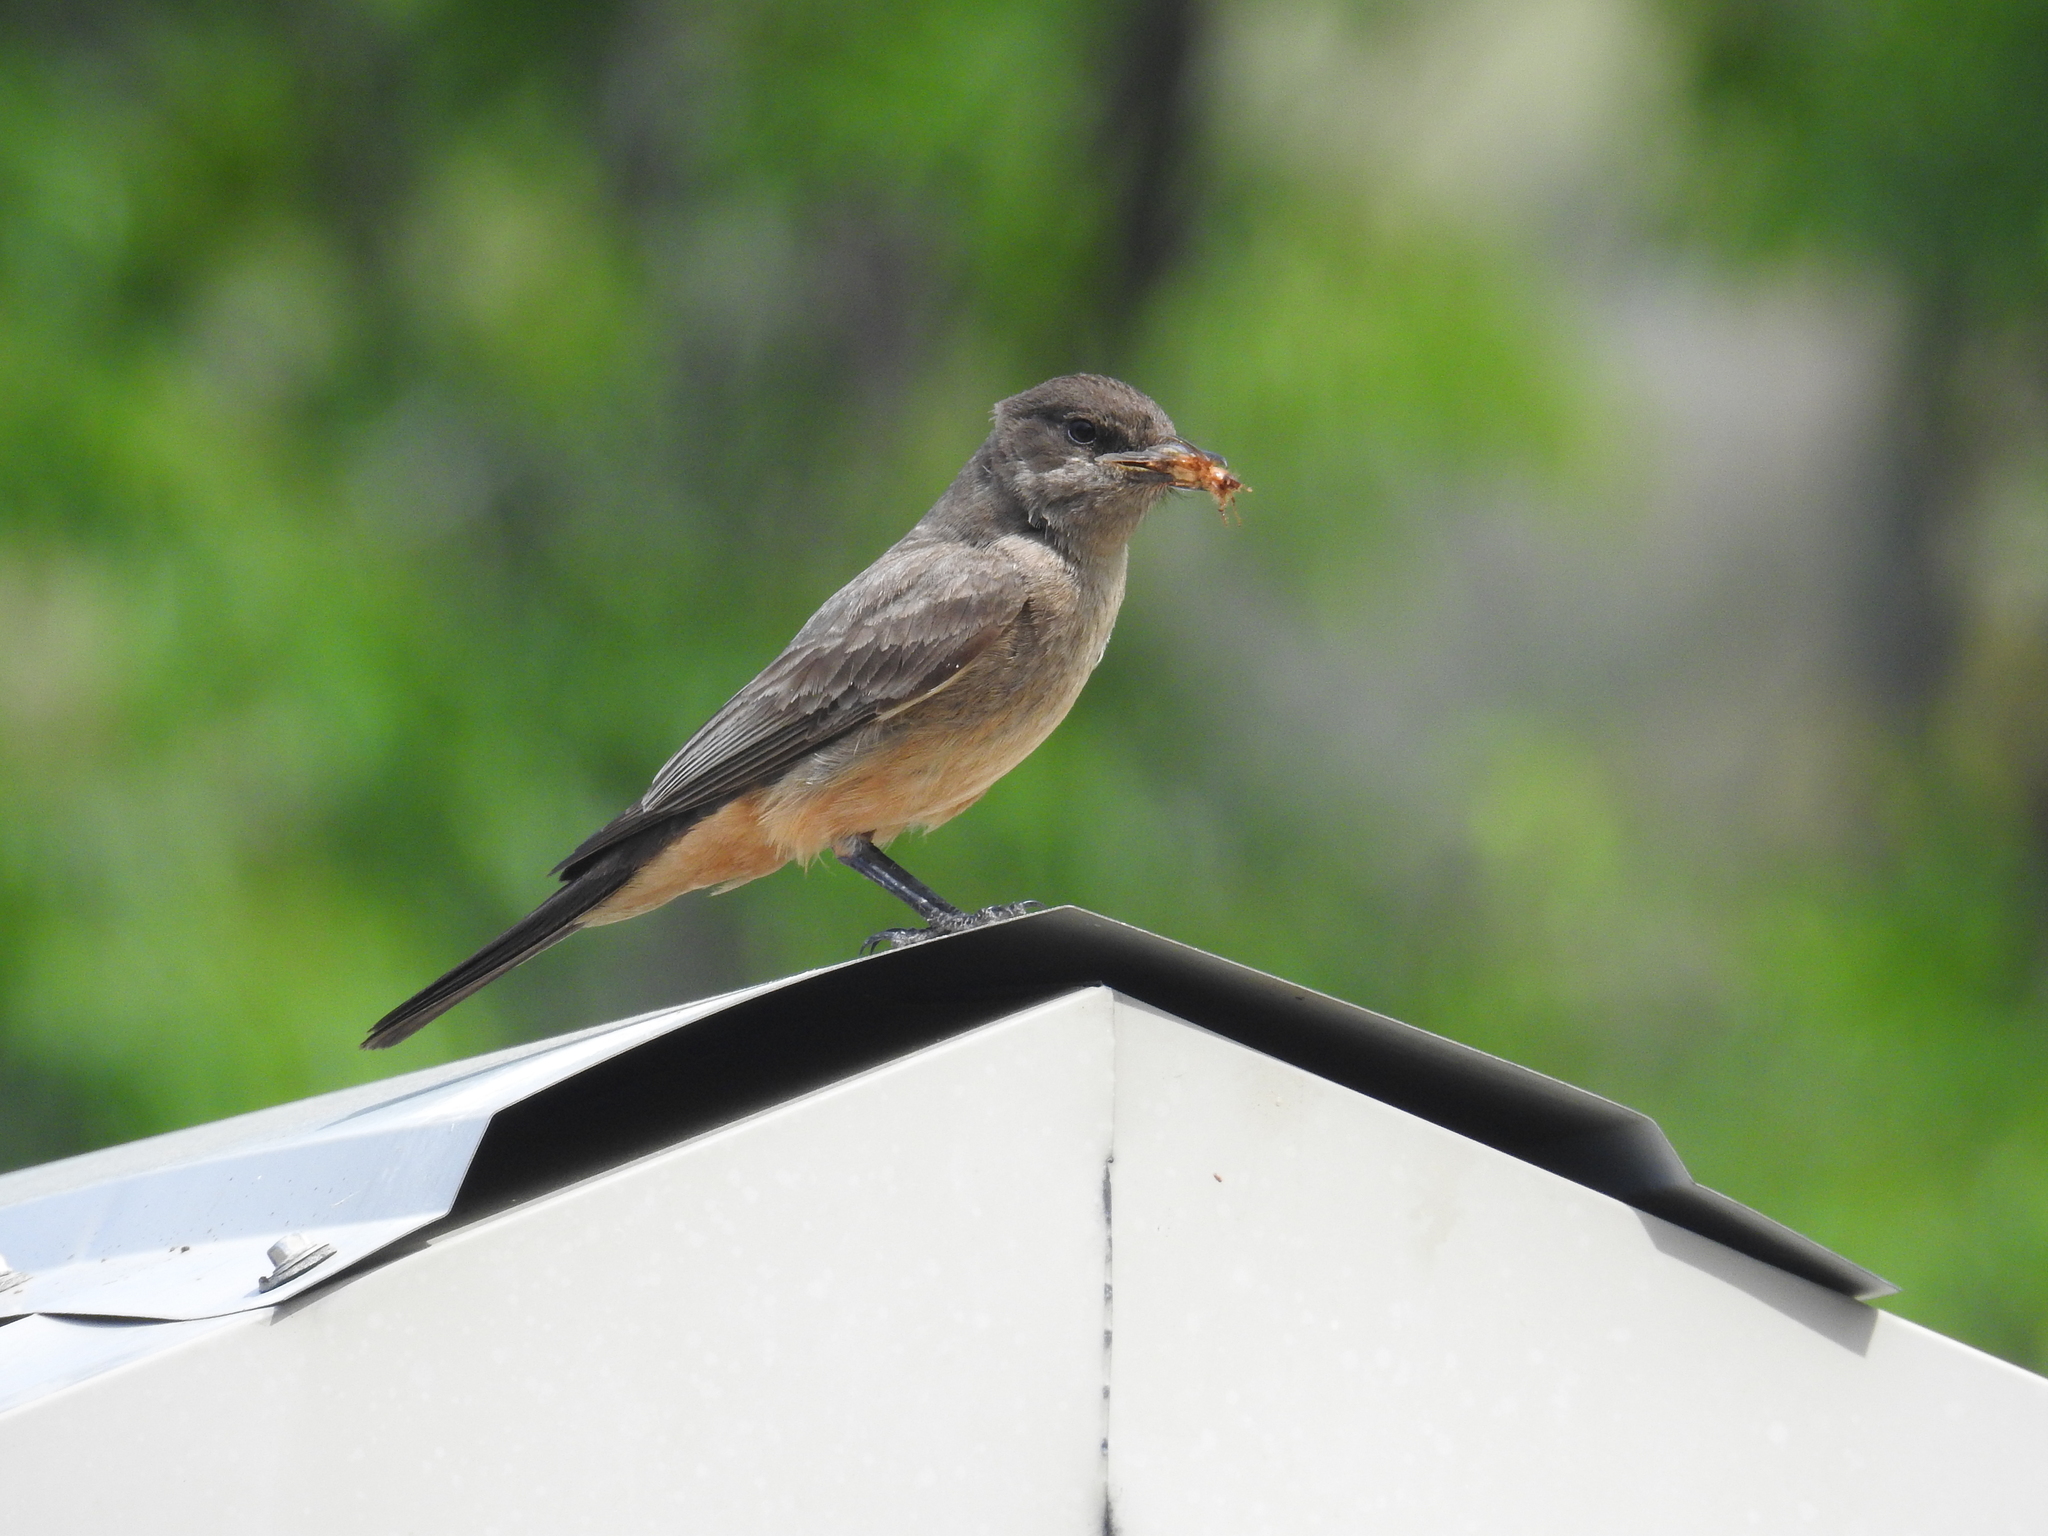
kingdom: Animalia
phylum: Chordata
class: Aves
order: Passeriformes
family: Tyrannidae
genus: Sayornis
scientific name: Sayornis saya
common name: Say's phoebe
